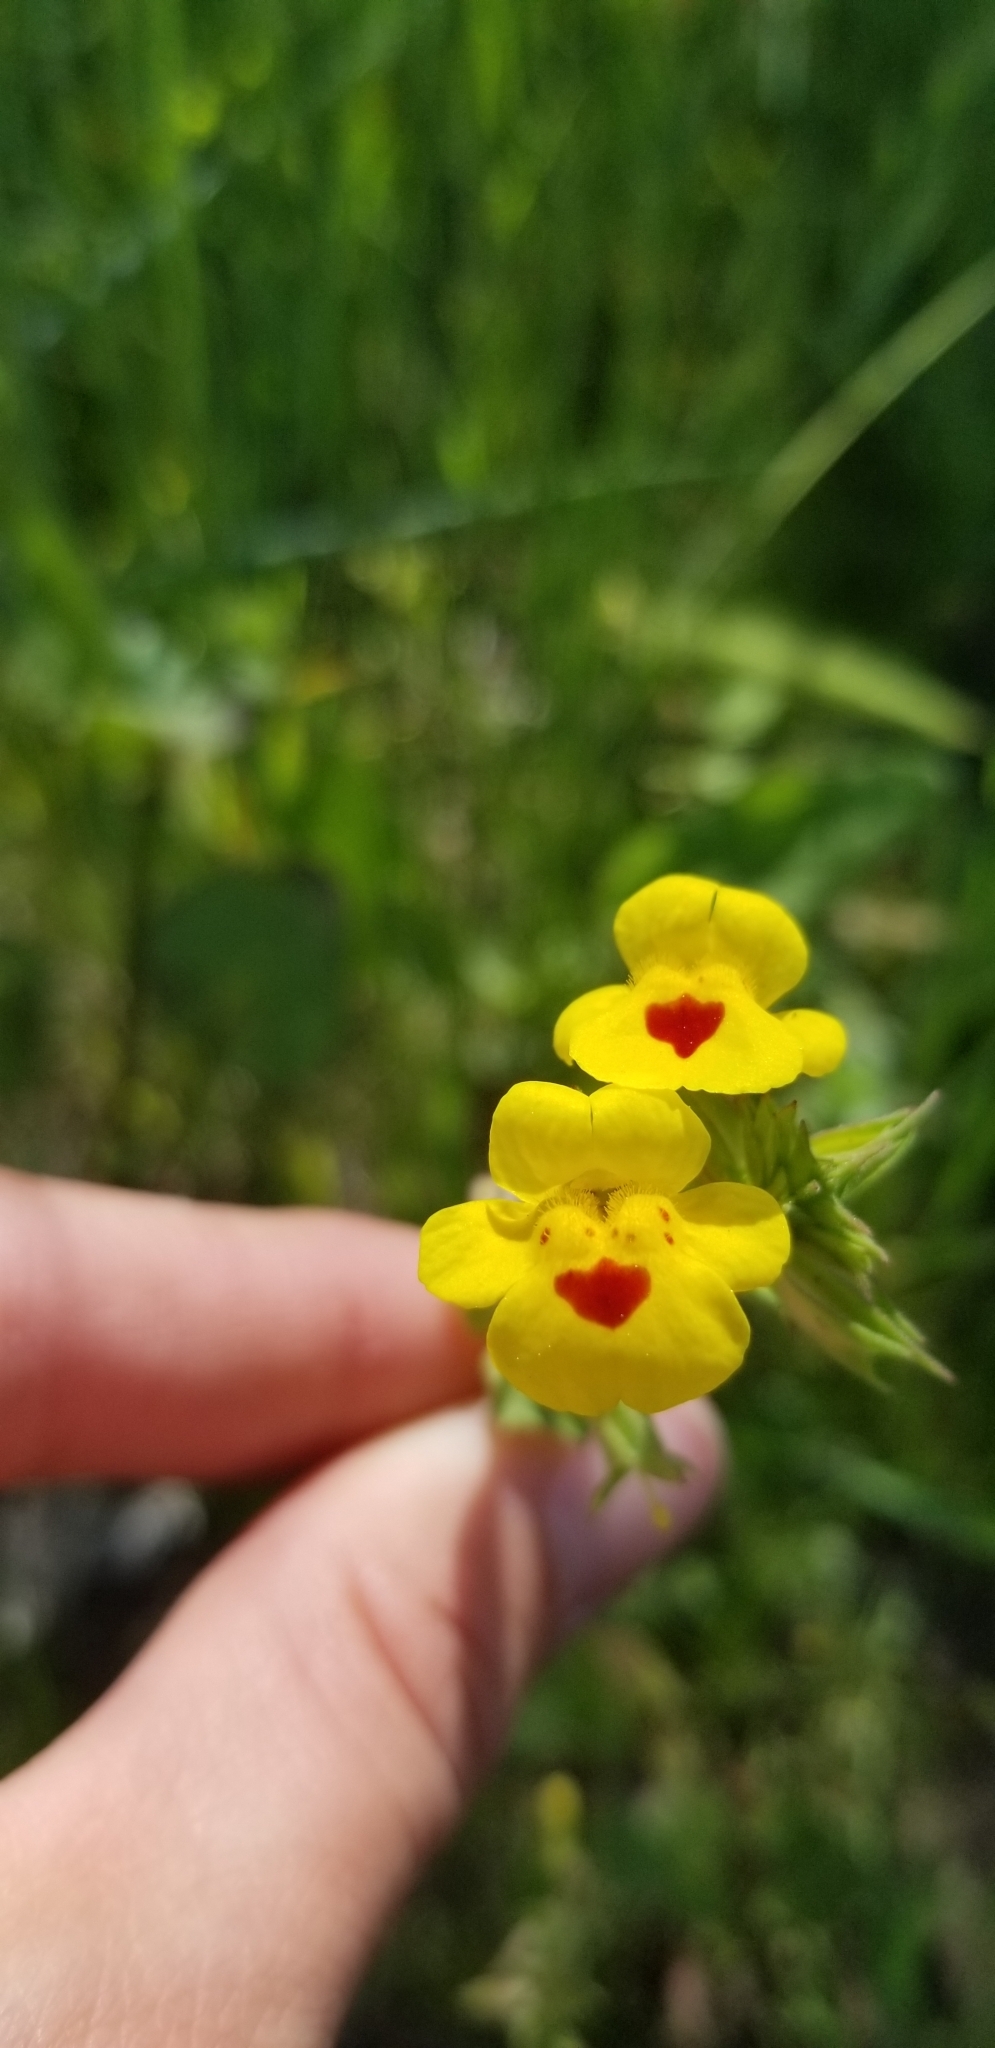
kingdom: Plantae
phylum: Tracheophyta
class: Magnoliopsida
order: Lamiales
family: Phrymaceae
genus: Erythranthe
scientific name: Erythranthe nasuta
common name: Sooke monkeyflower
